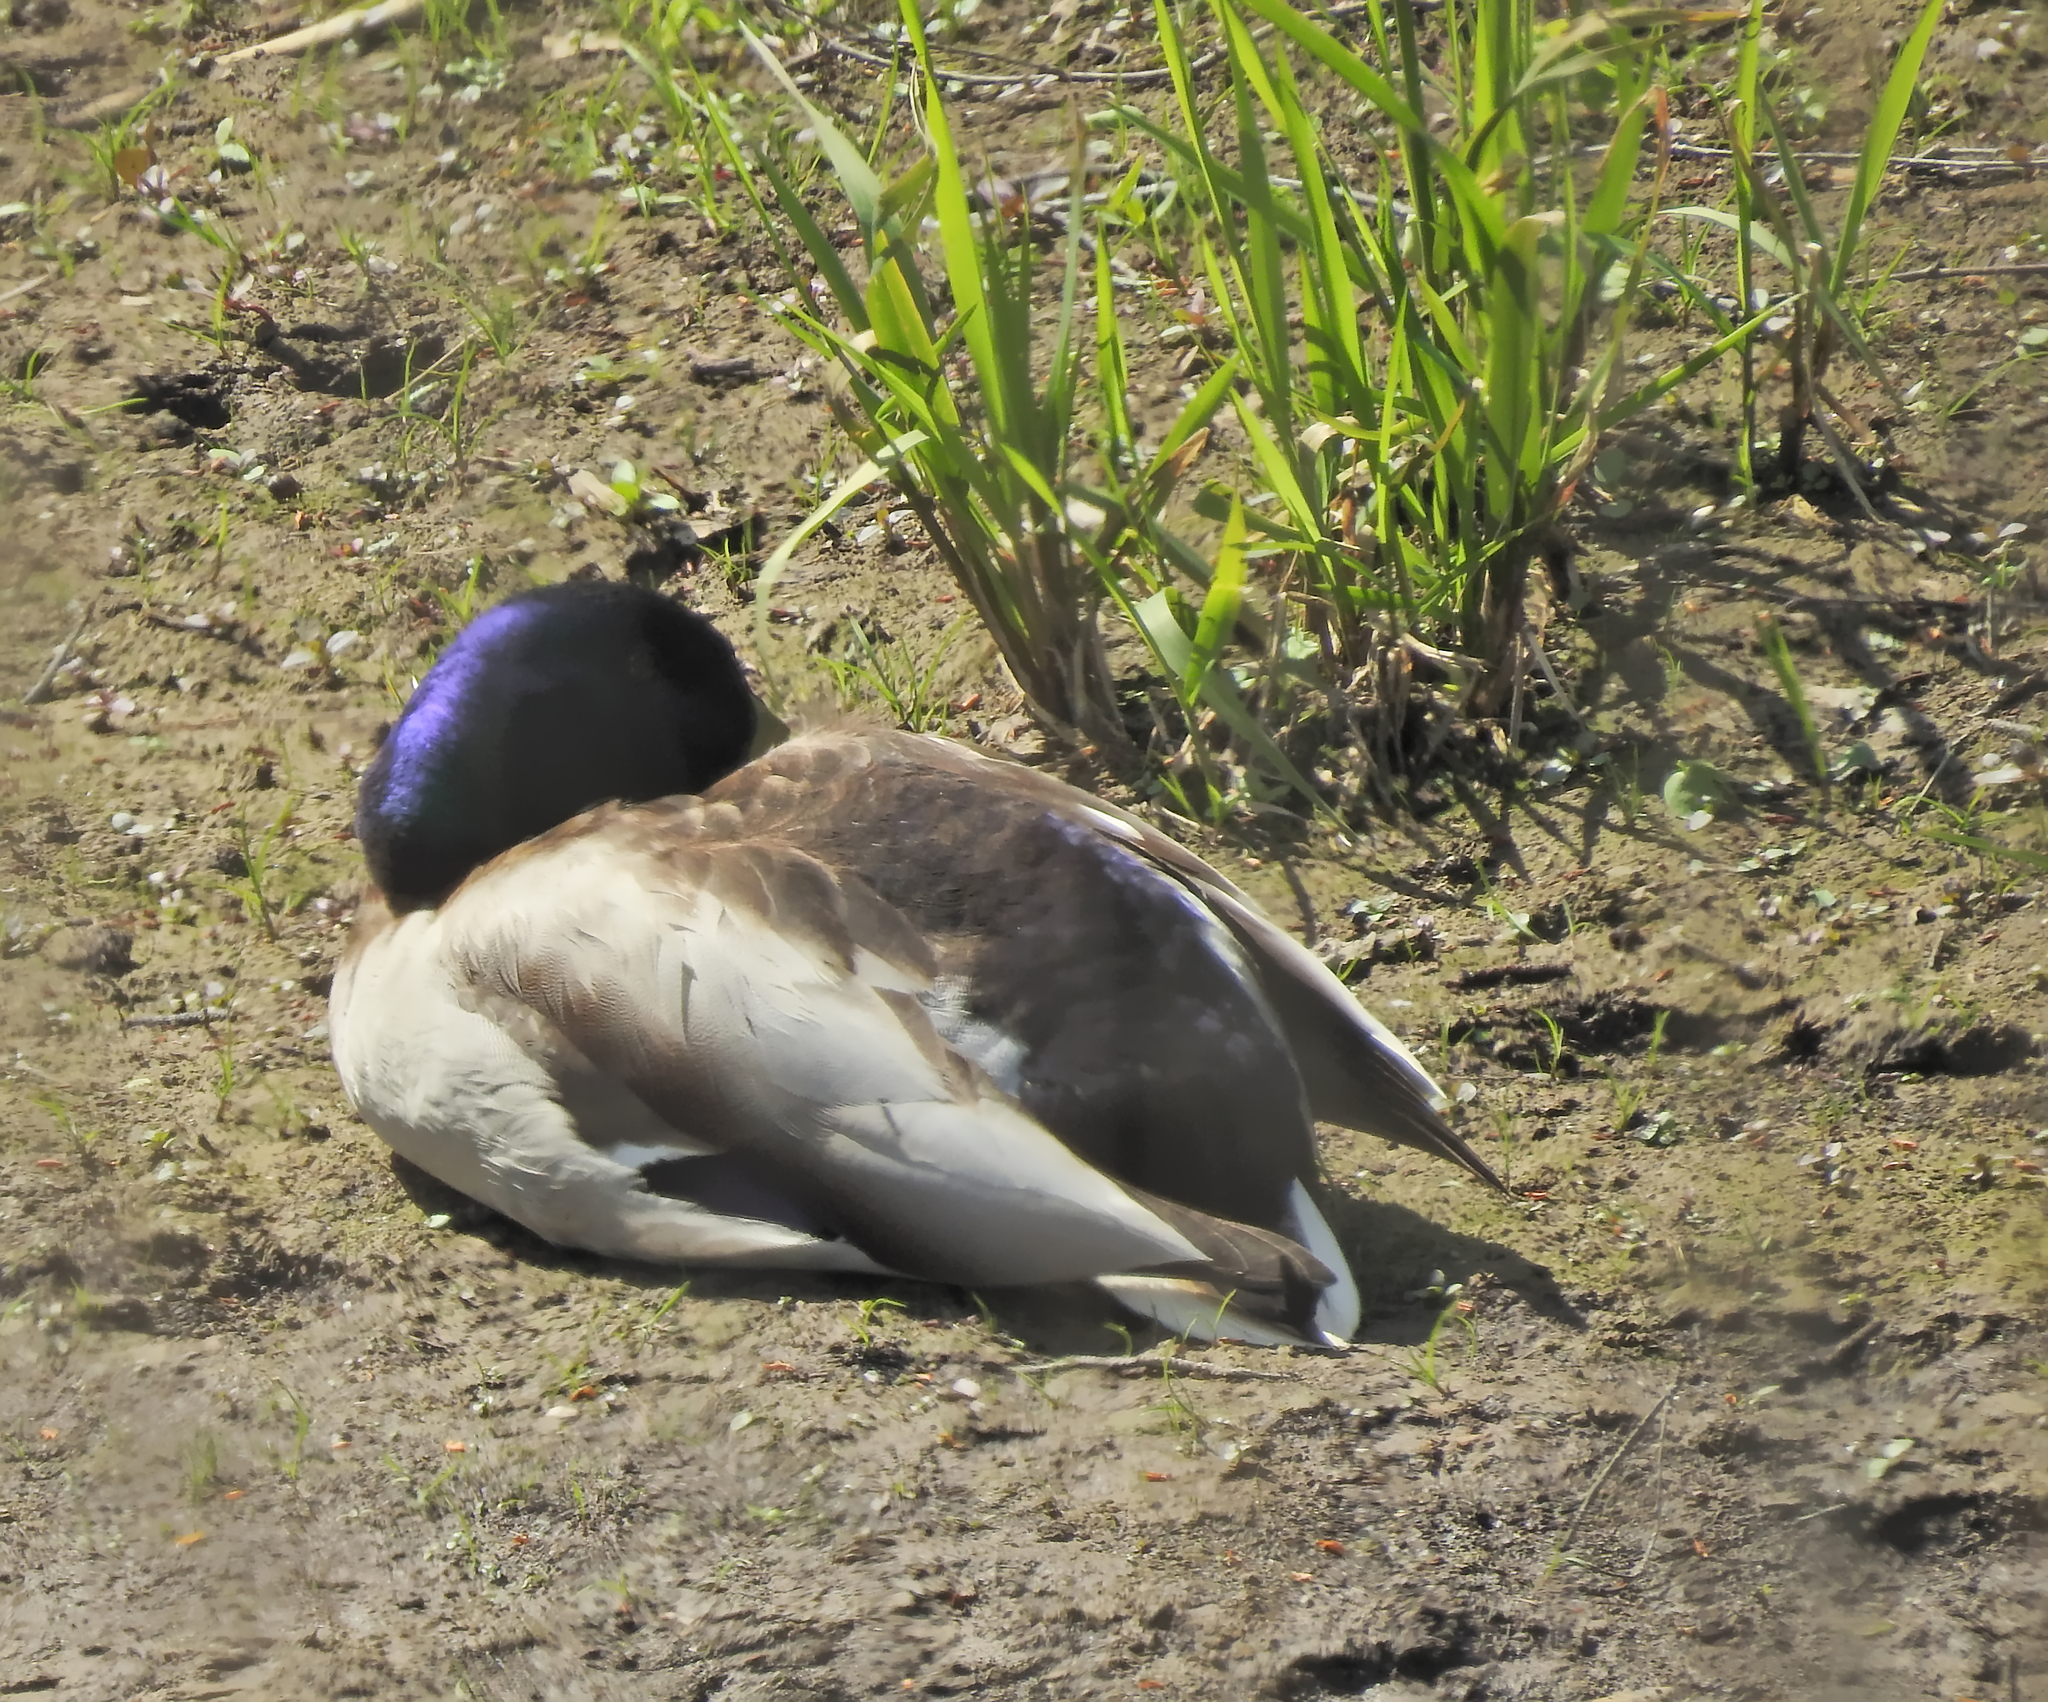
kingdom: Animalia
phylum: Chordata
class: Aves
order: Anseriformes
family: Anatidae
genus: Anas
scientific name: Anas platyrhynchos
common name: Mallard
